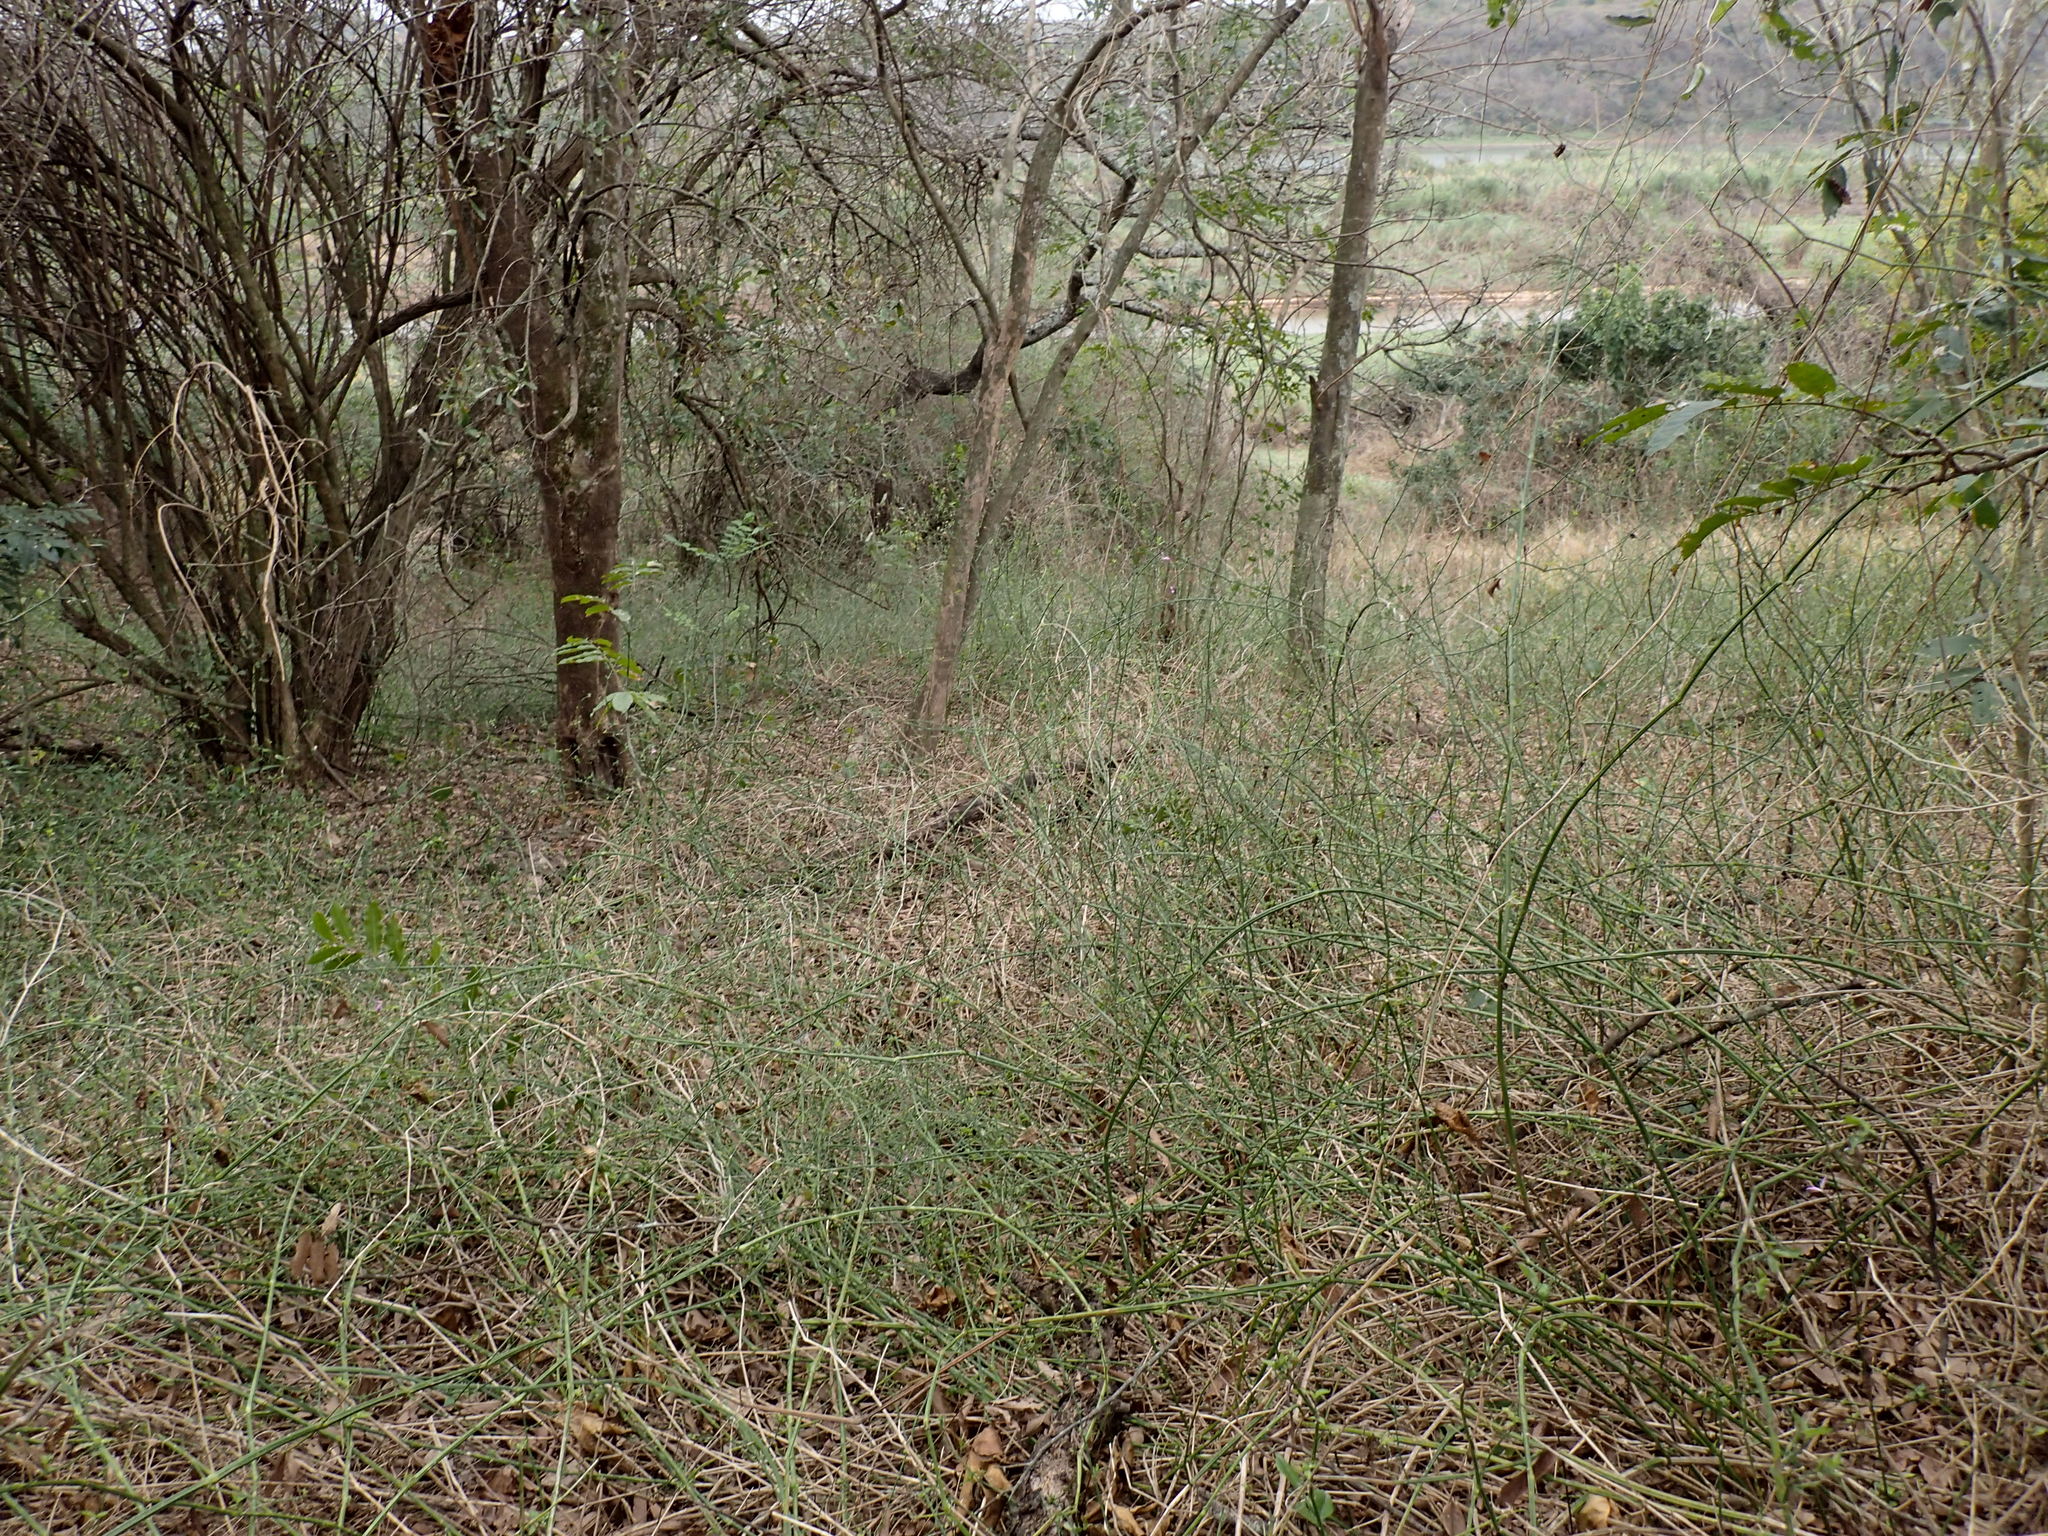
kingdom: Plantae
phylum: Tracheophyta
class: Magnoliopsida
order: Lamiales
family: Acanthaceae
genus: Dicliptera
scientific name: Dicliptera cernua
